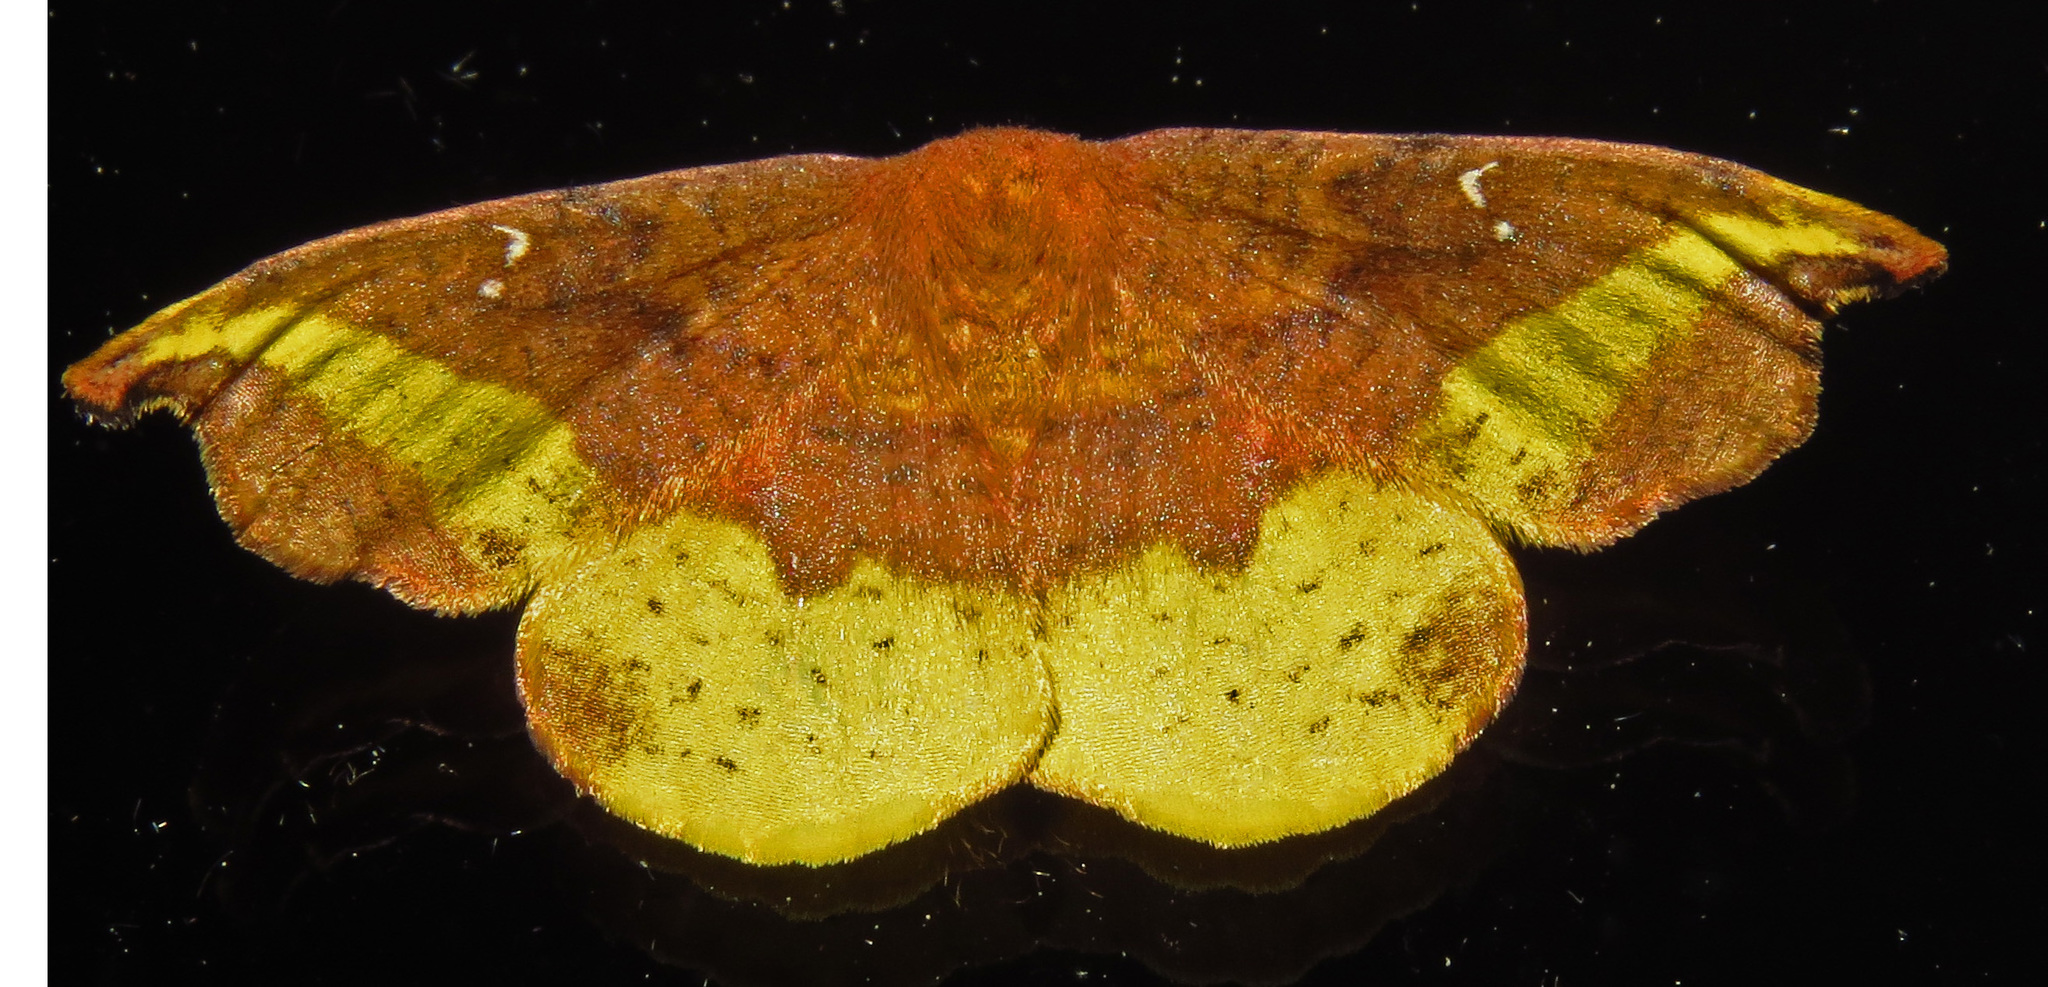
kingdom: Animalia
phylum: Arthropoda
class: Insecta
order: Lepidoptera
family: Drepanidae
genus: Oreta
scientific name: Oreta rosea
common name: Rose hooktip
